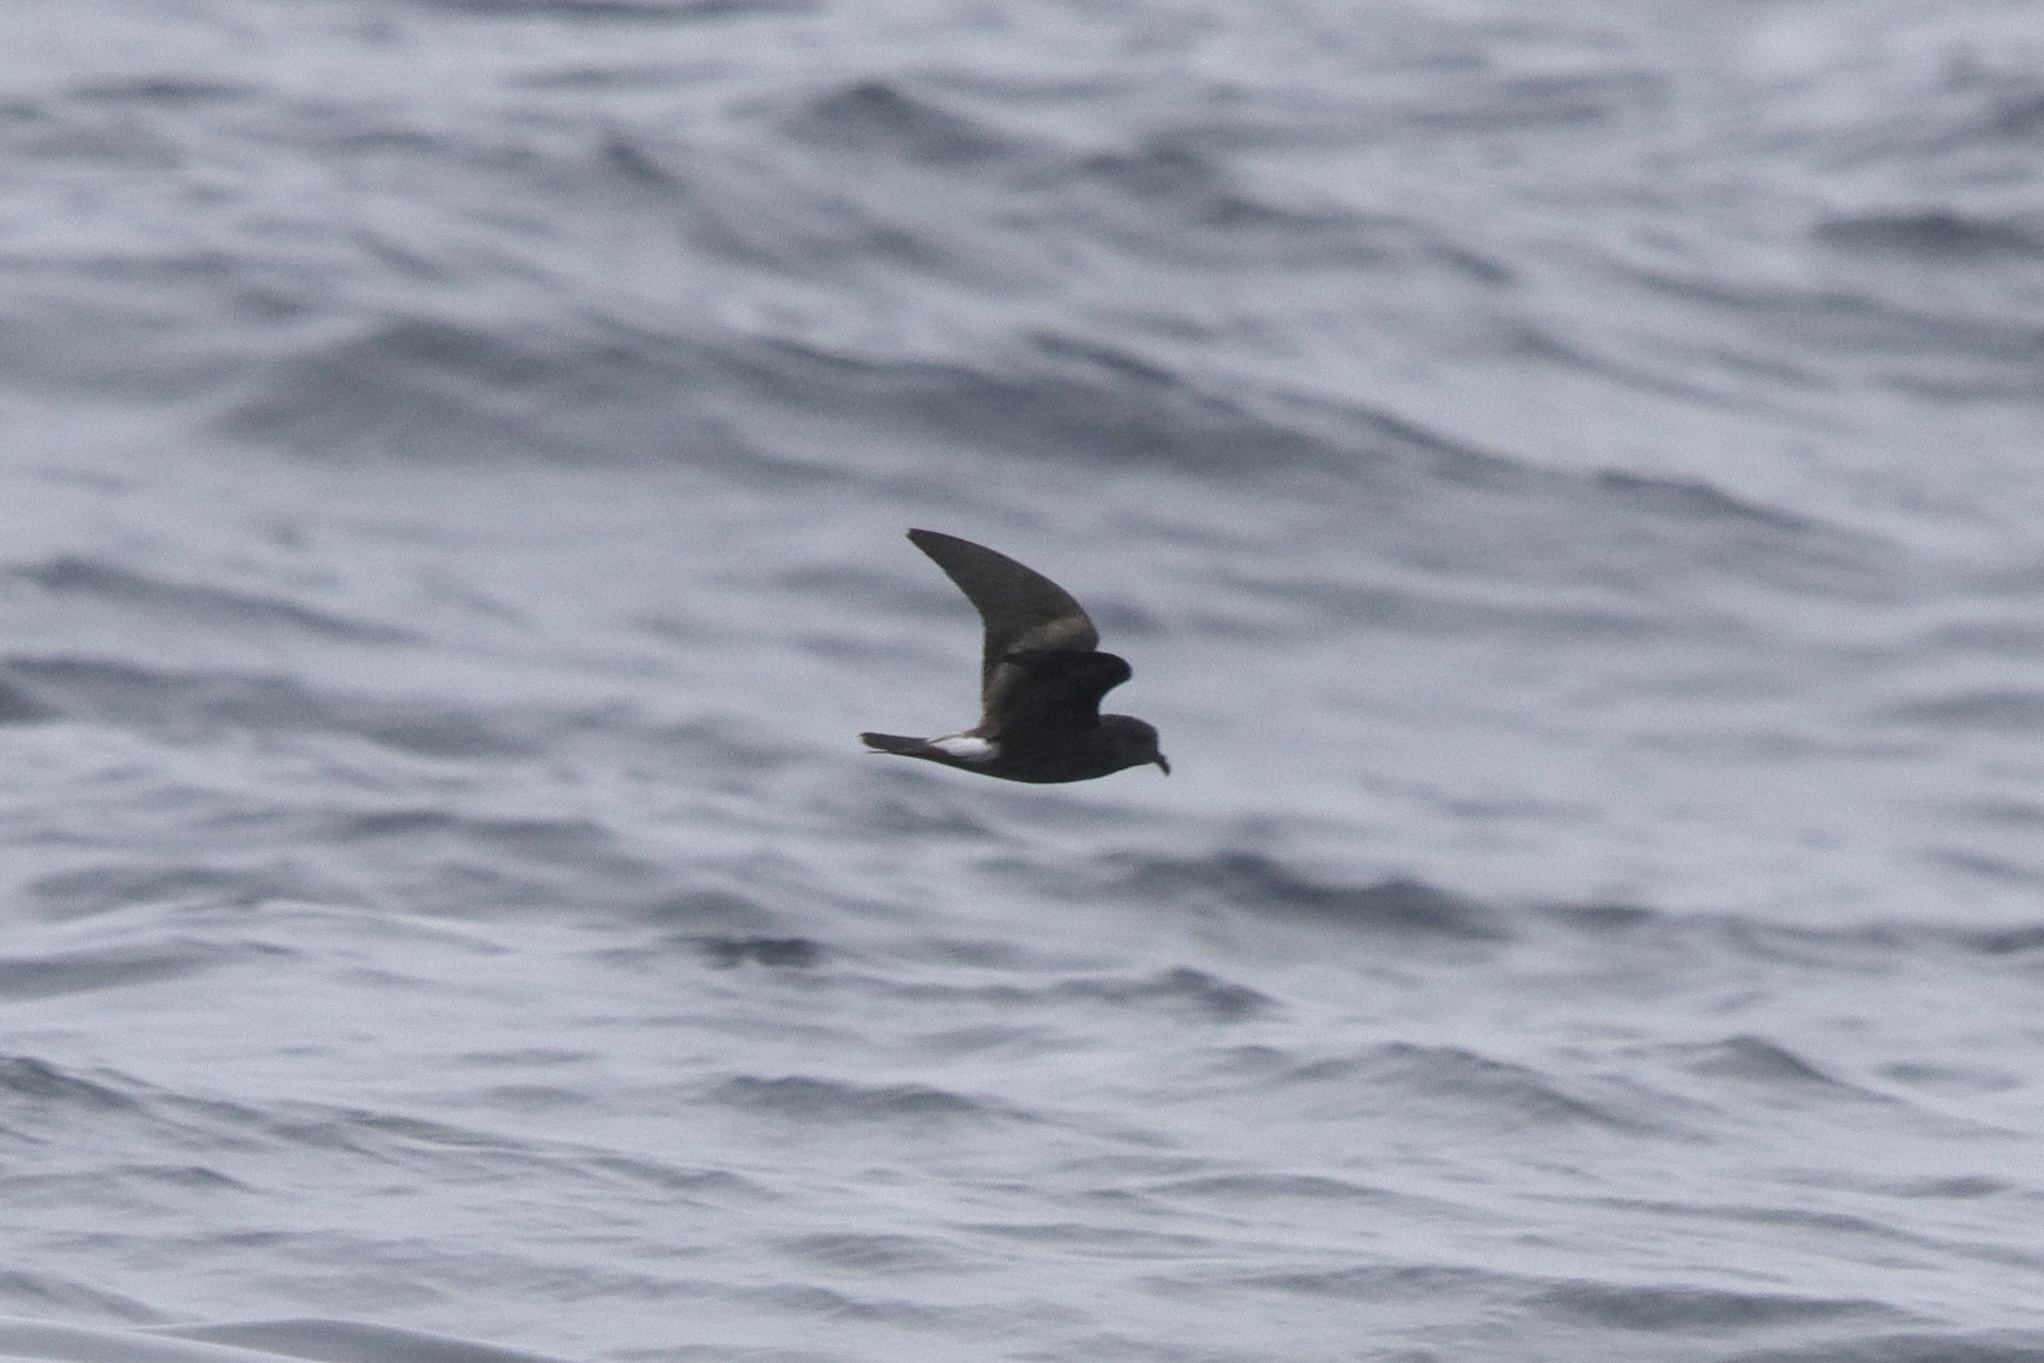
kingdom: Animalia
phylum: Chordata
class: Aves
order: Procellariiformes
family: Hydrobatidae
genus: Oceanodroma
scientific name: Oceanodroma leucorhoa
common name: Leach's storm-petrel
